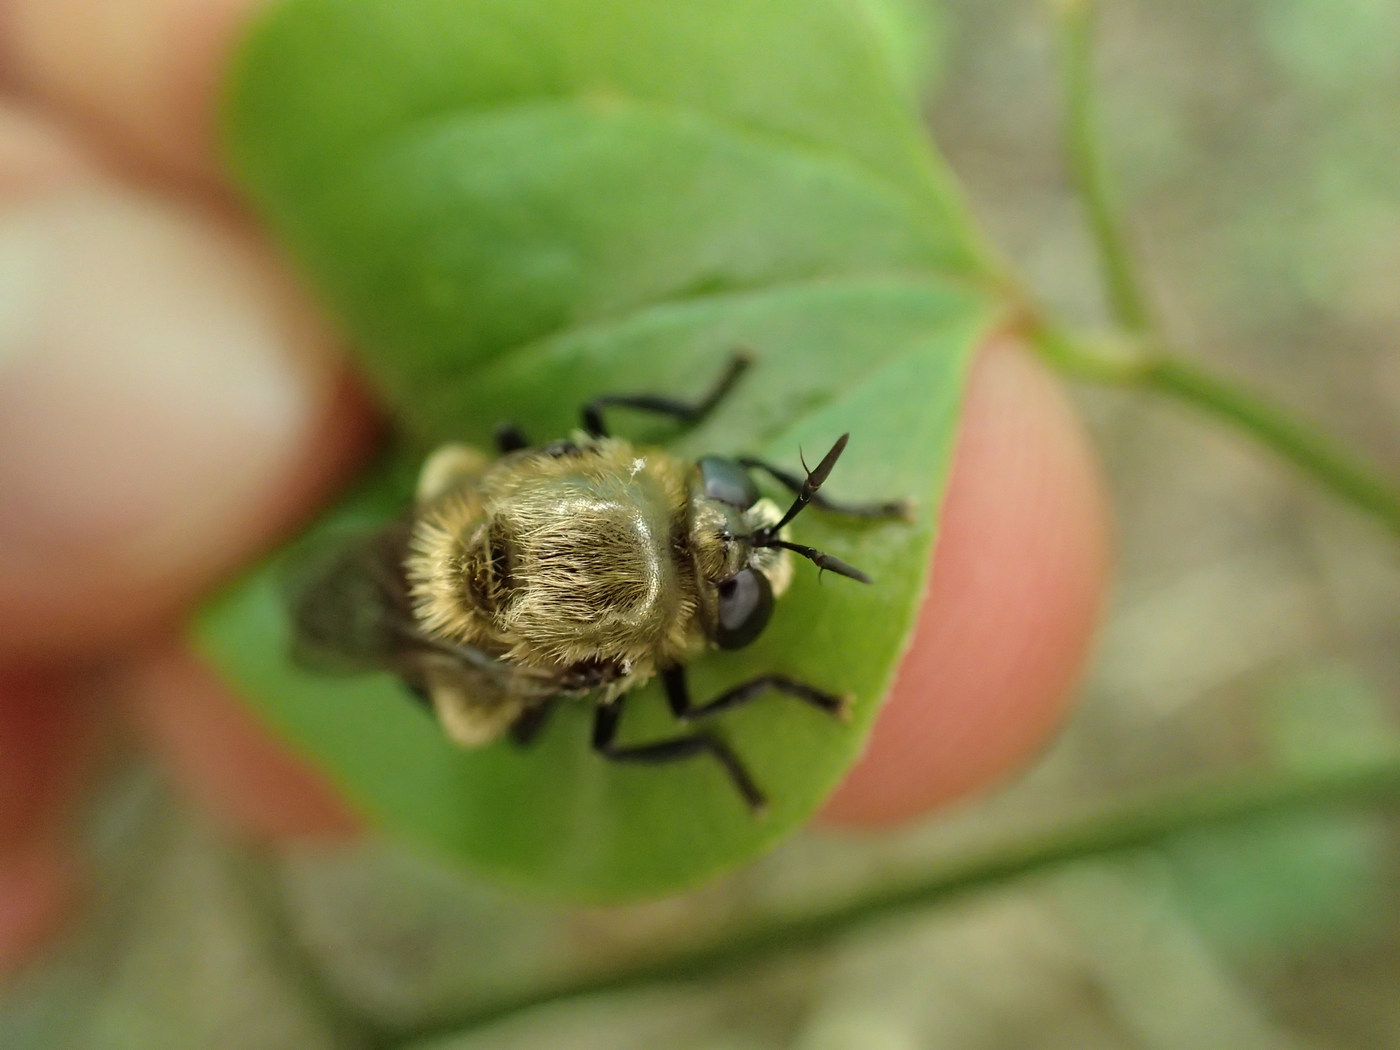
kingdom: Animalia
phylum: Arthropoda
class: Insecta
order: Diptera
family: Syrphidae
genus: Microdon
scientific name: Microdon megalogaster
